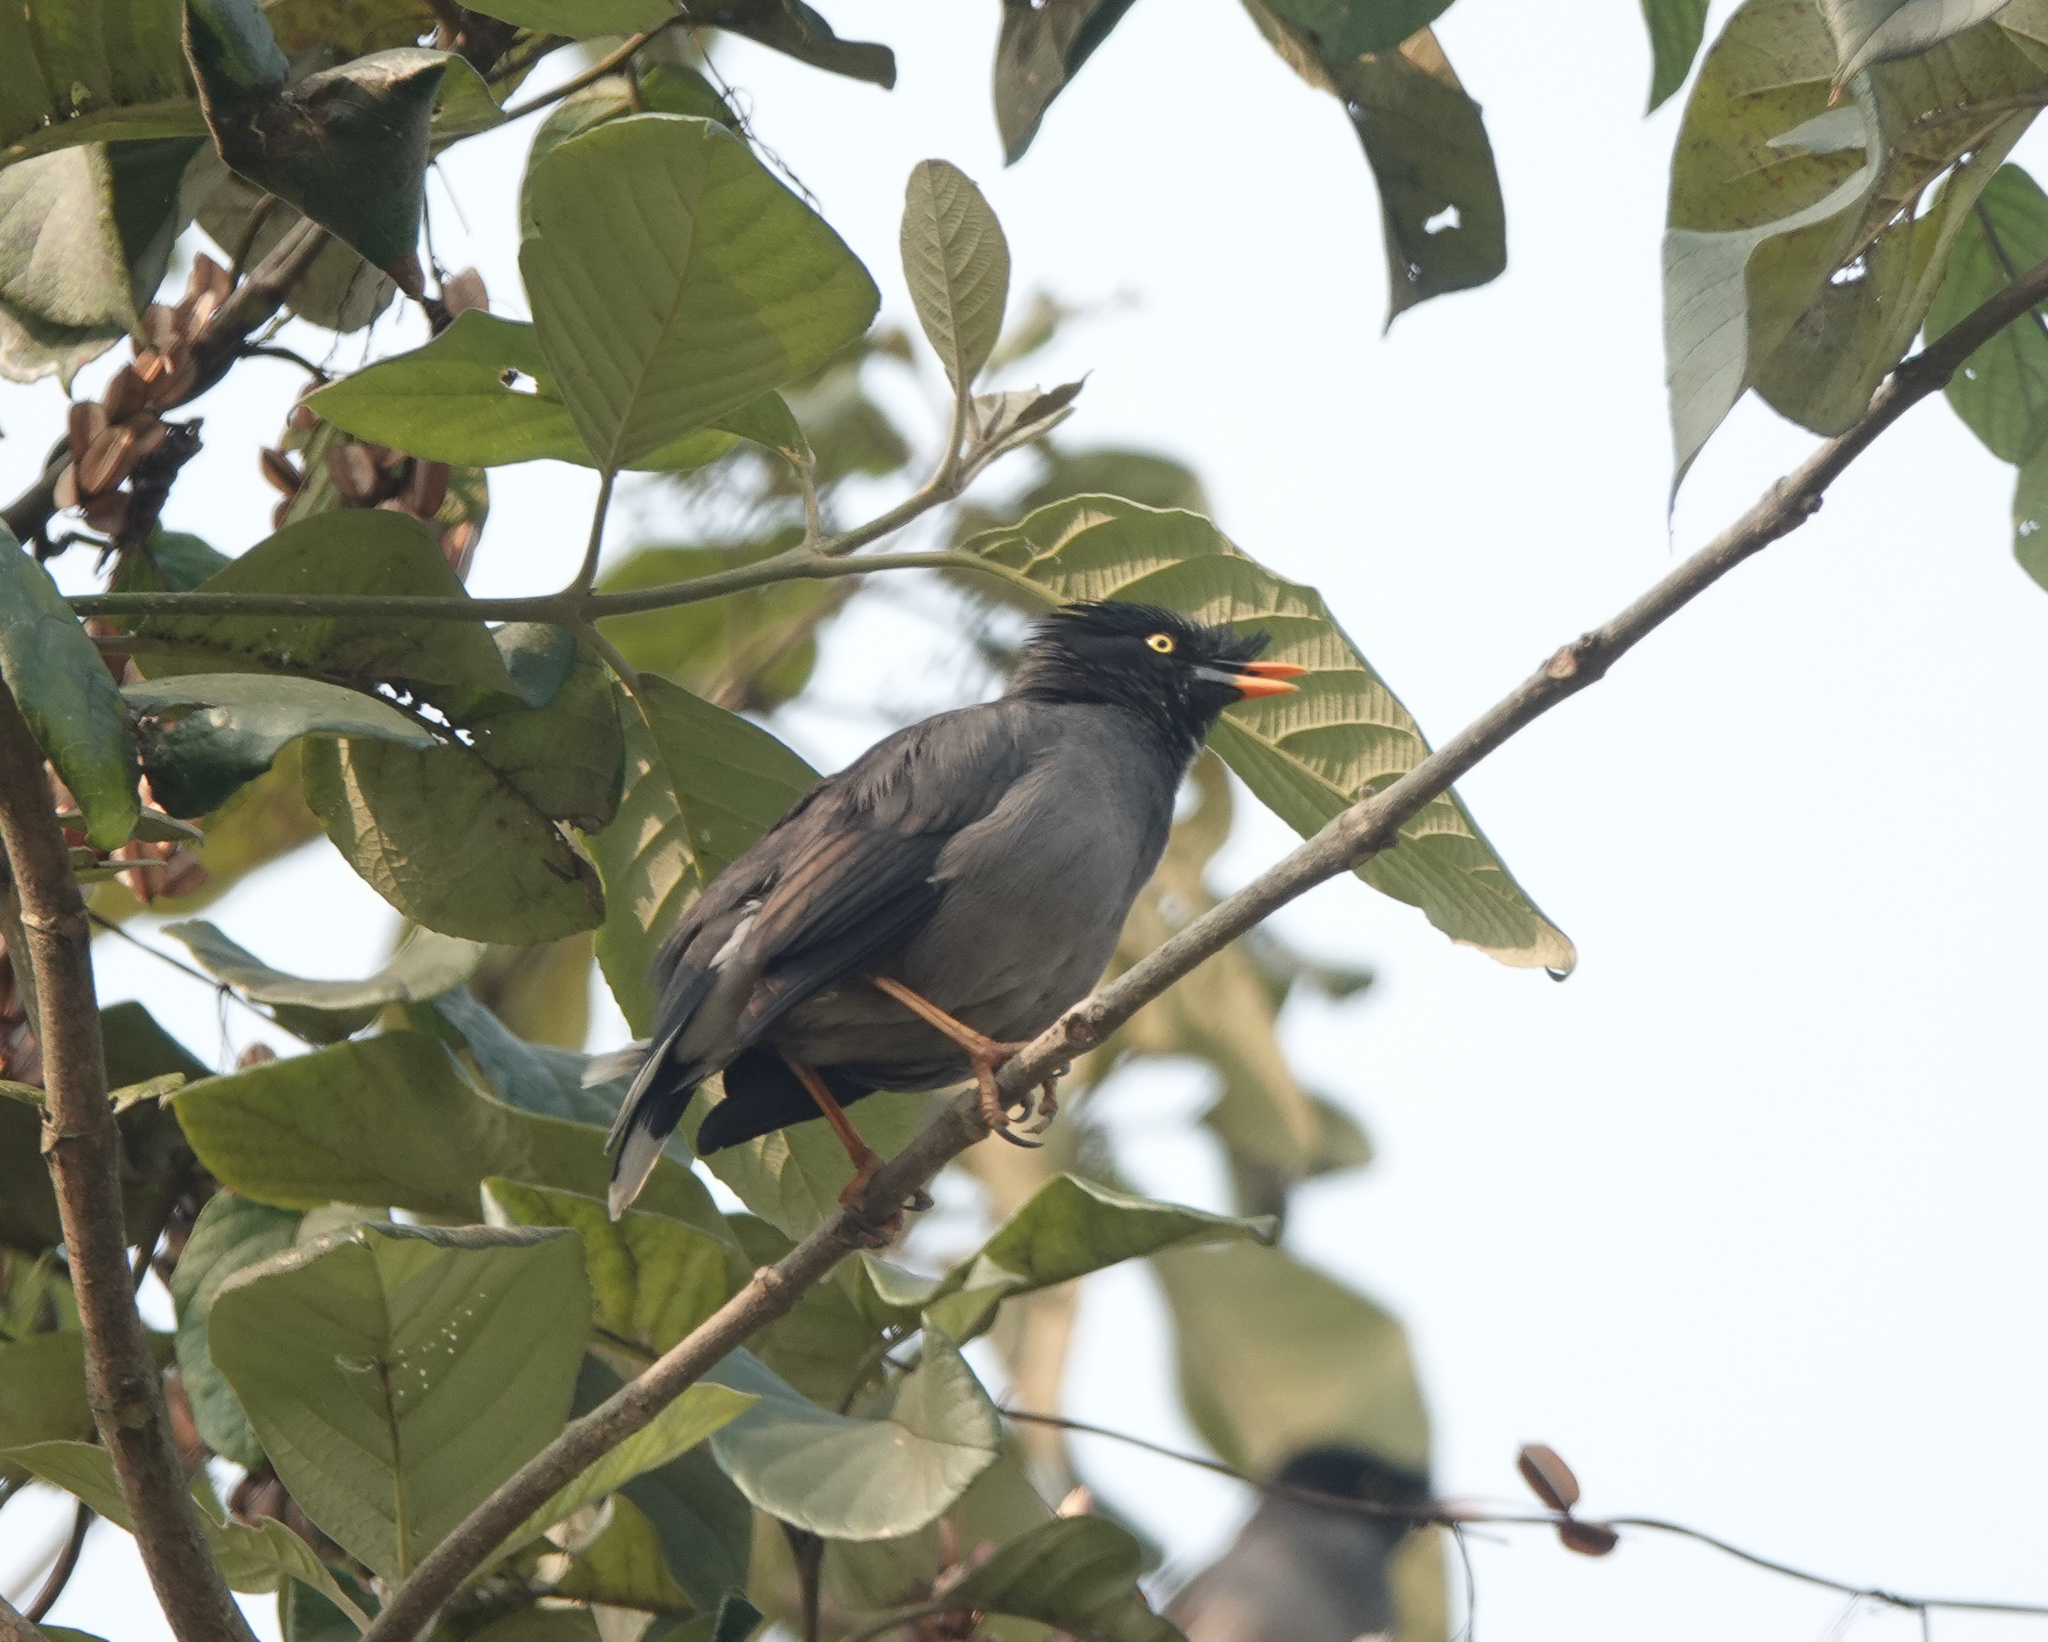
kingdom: Animalia
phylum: Chordata
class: Aves
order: Passeriformes
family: Sturnidae
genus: Acridotheres
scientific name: Acridotheres fuscus
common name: Jungle myna
